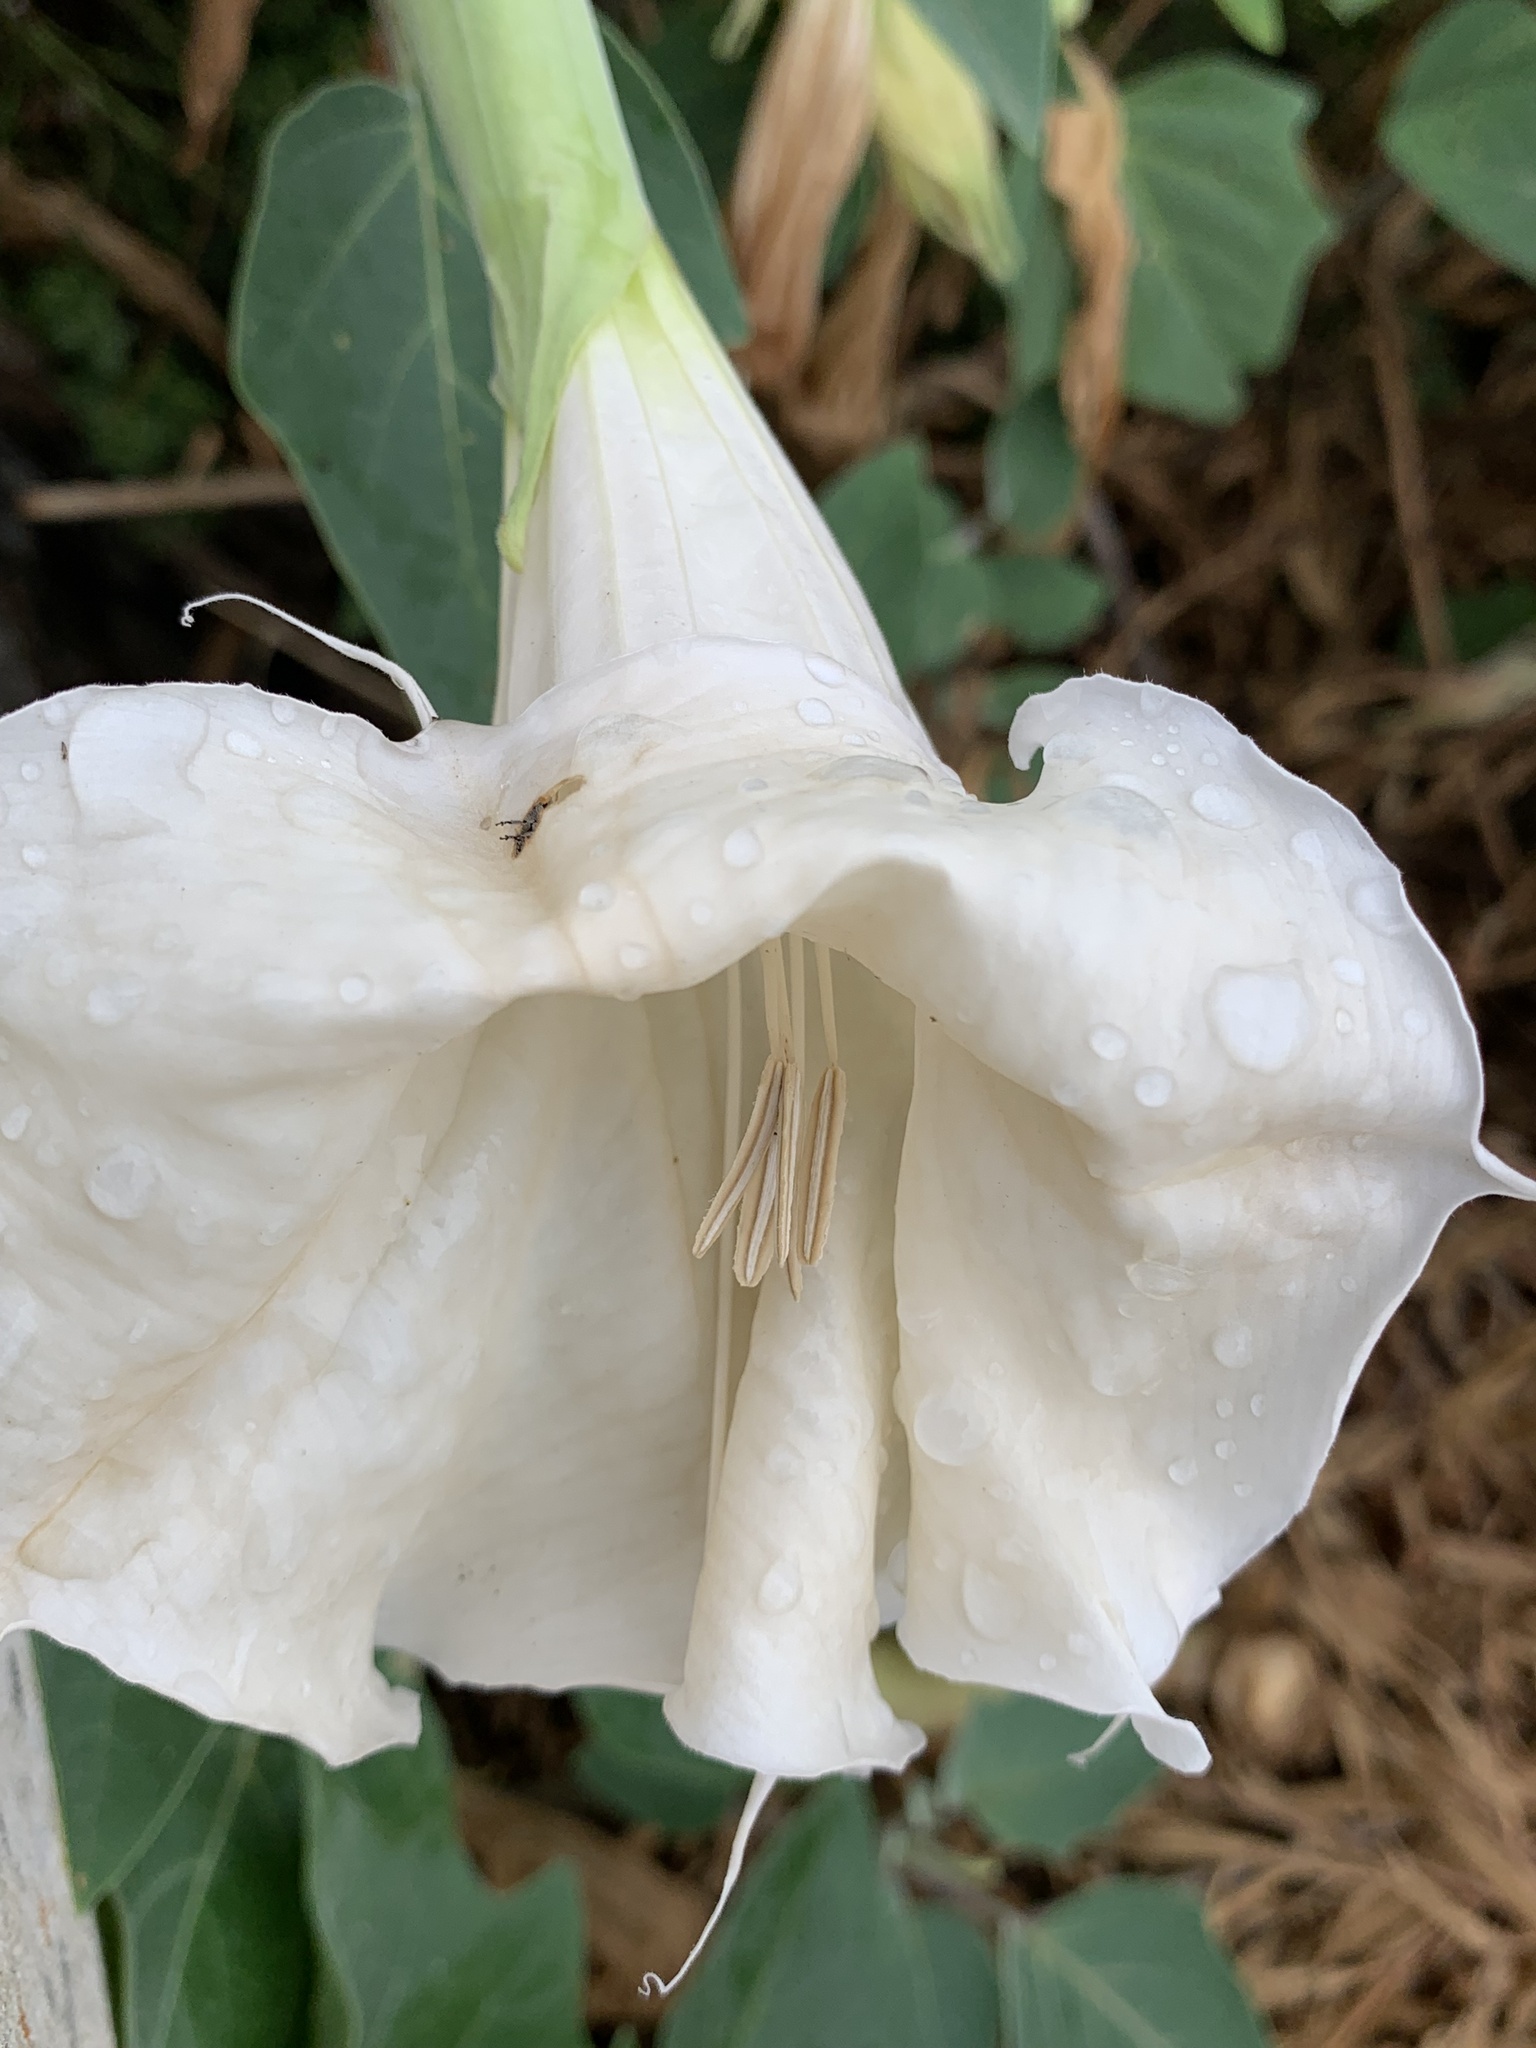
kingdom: Plantae
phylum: Tracheophyta
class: Magnoliopsida
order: Solanales
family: Solanaceae
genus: Datura
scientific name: Datura wrightii
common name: Sacred thorn-apple
